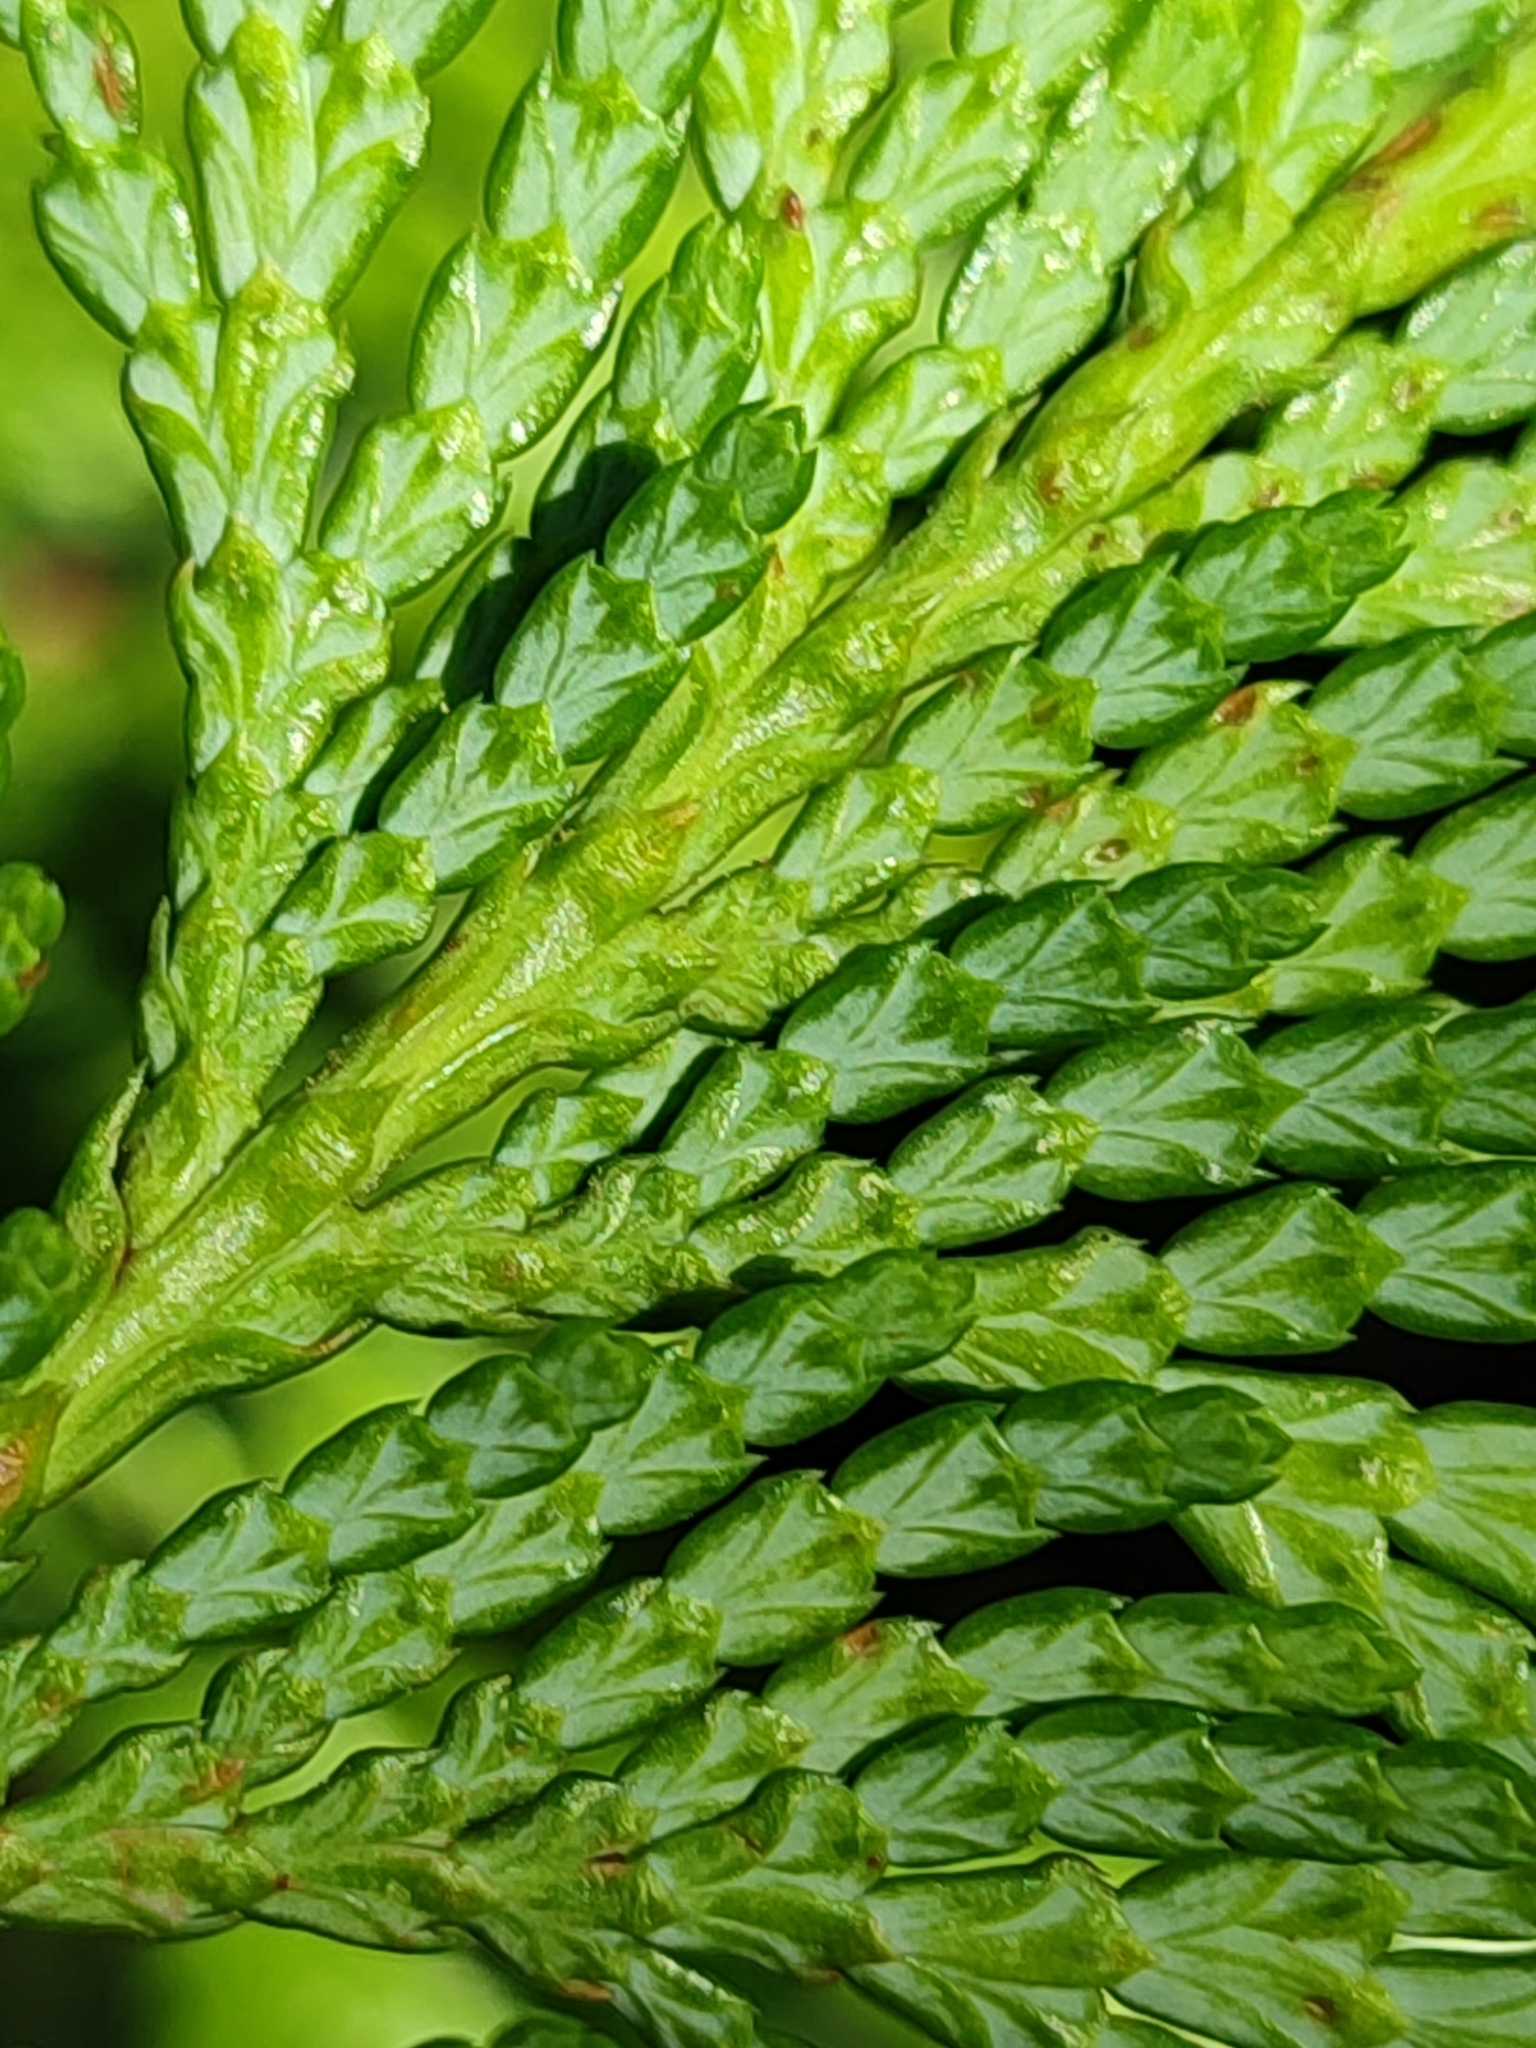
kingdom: Plantae
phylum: Tracheophyta
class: Pinopsida
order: Pinales
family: Cupressaceae
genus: Thuja
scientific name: Thuja plicata
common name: Western red-cedar
